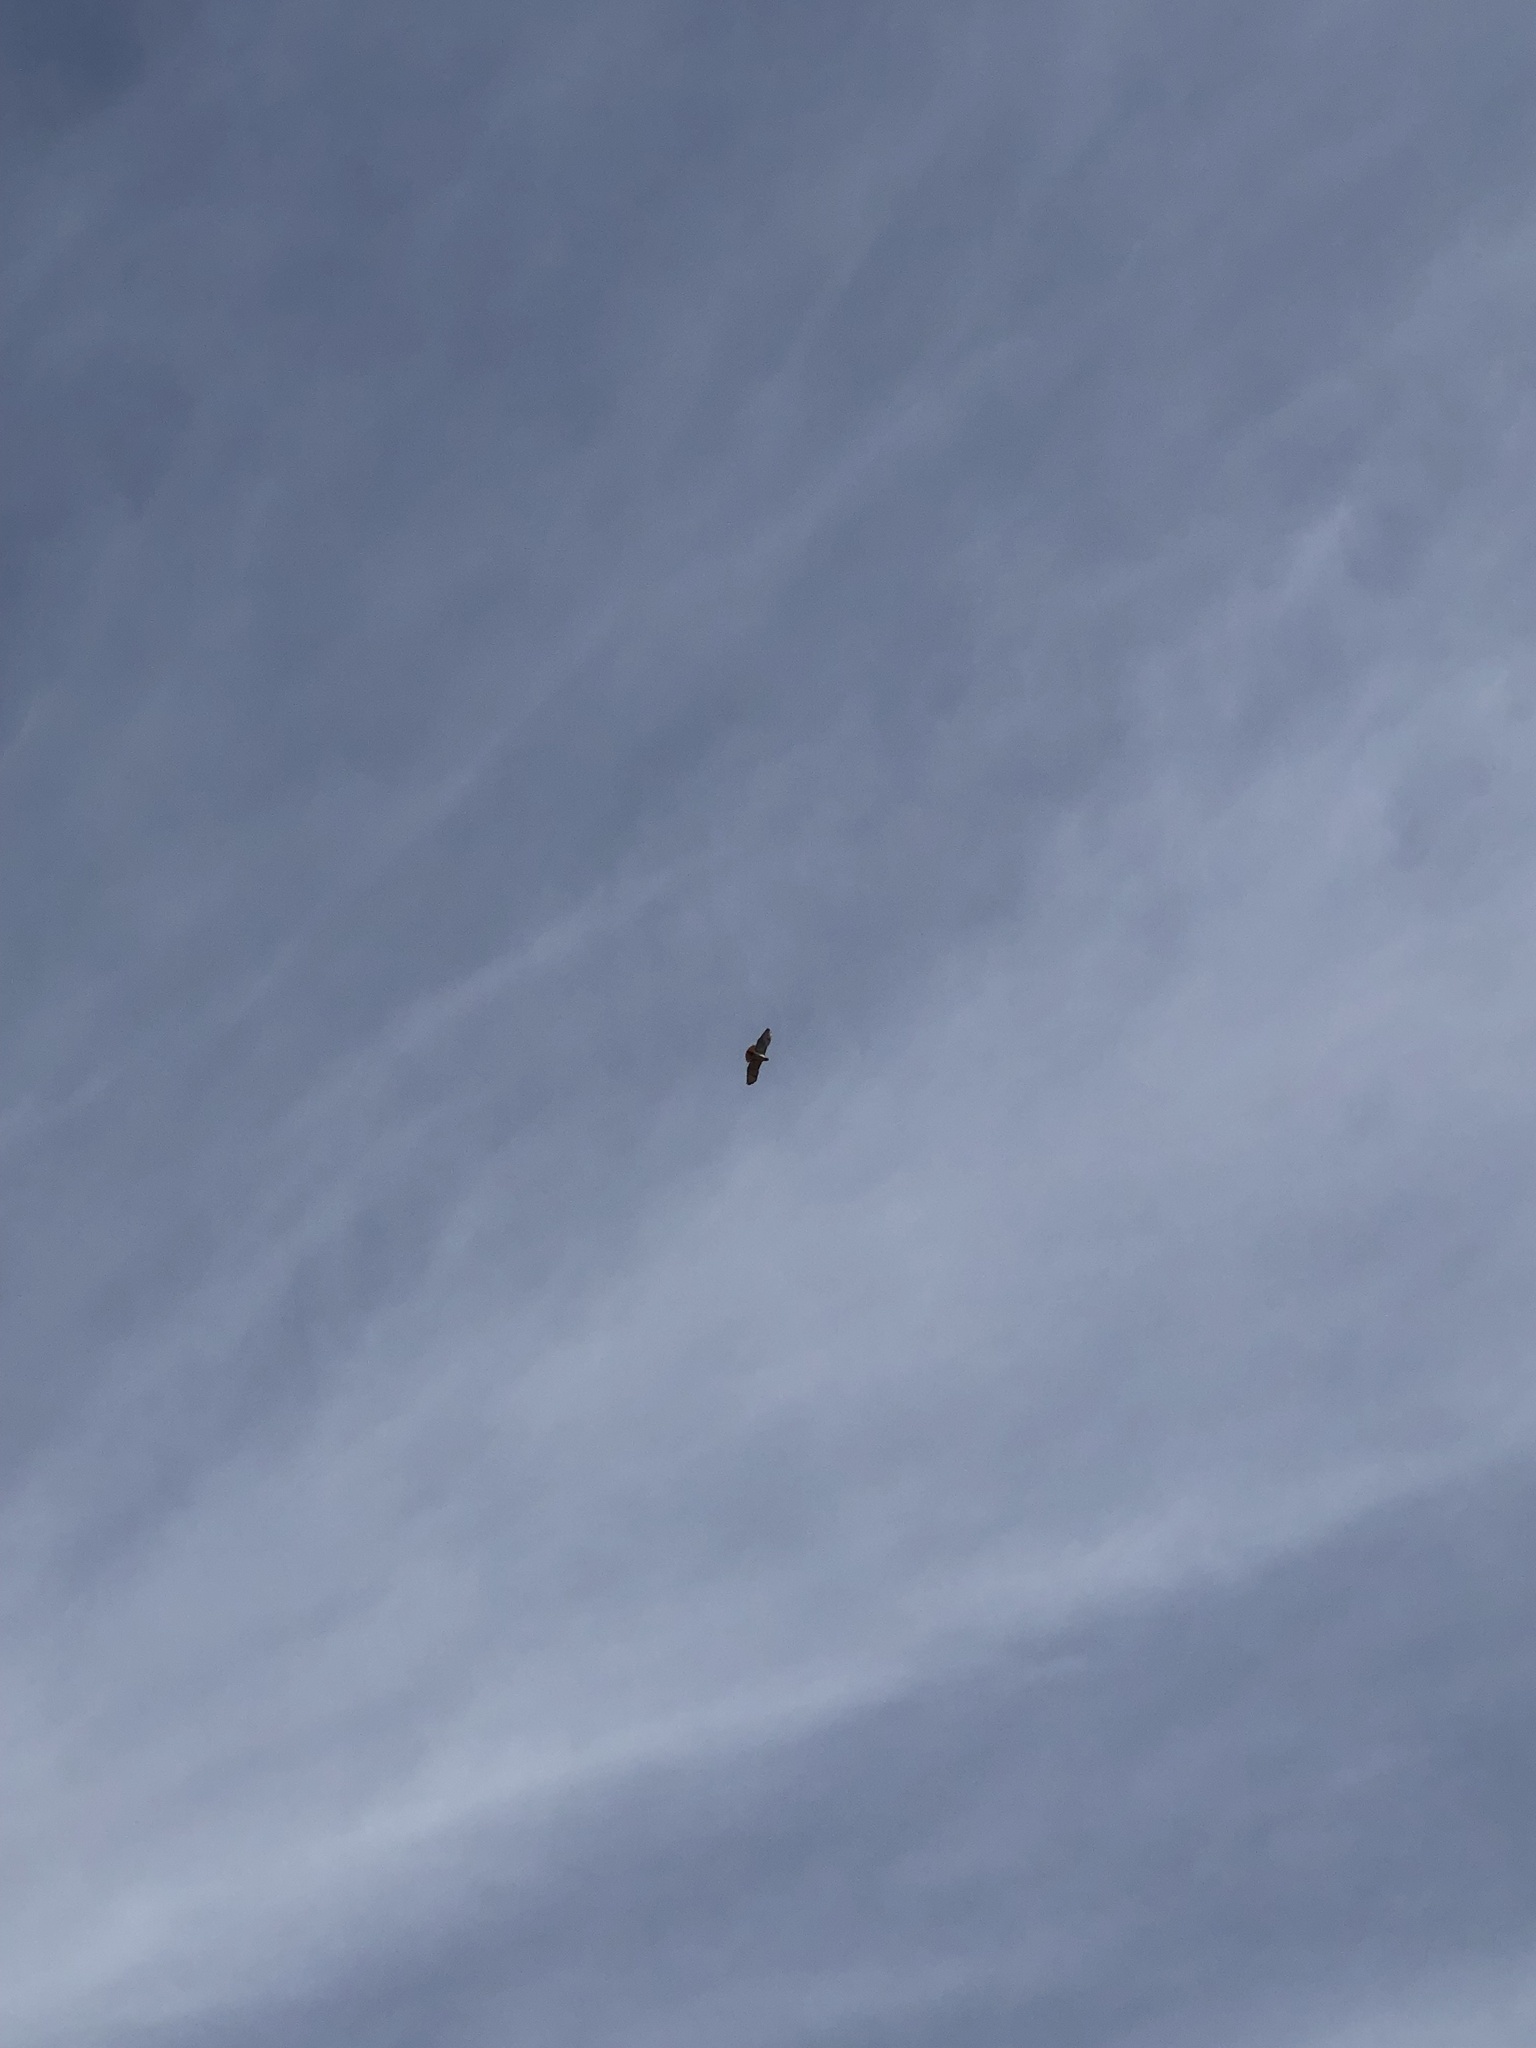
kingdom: Animalia
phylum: Chordata
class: Aves
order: Accipitriformes
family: Accipitridae
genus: Buteo
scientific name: Buteo jamaicensis
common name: Red-tailed hawk
